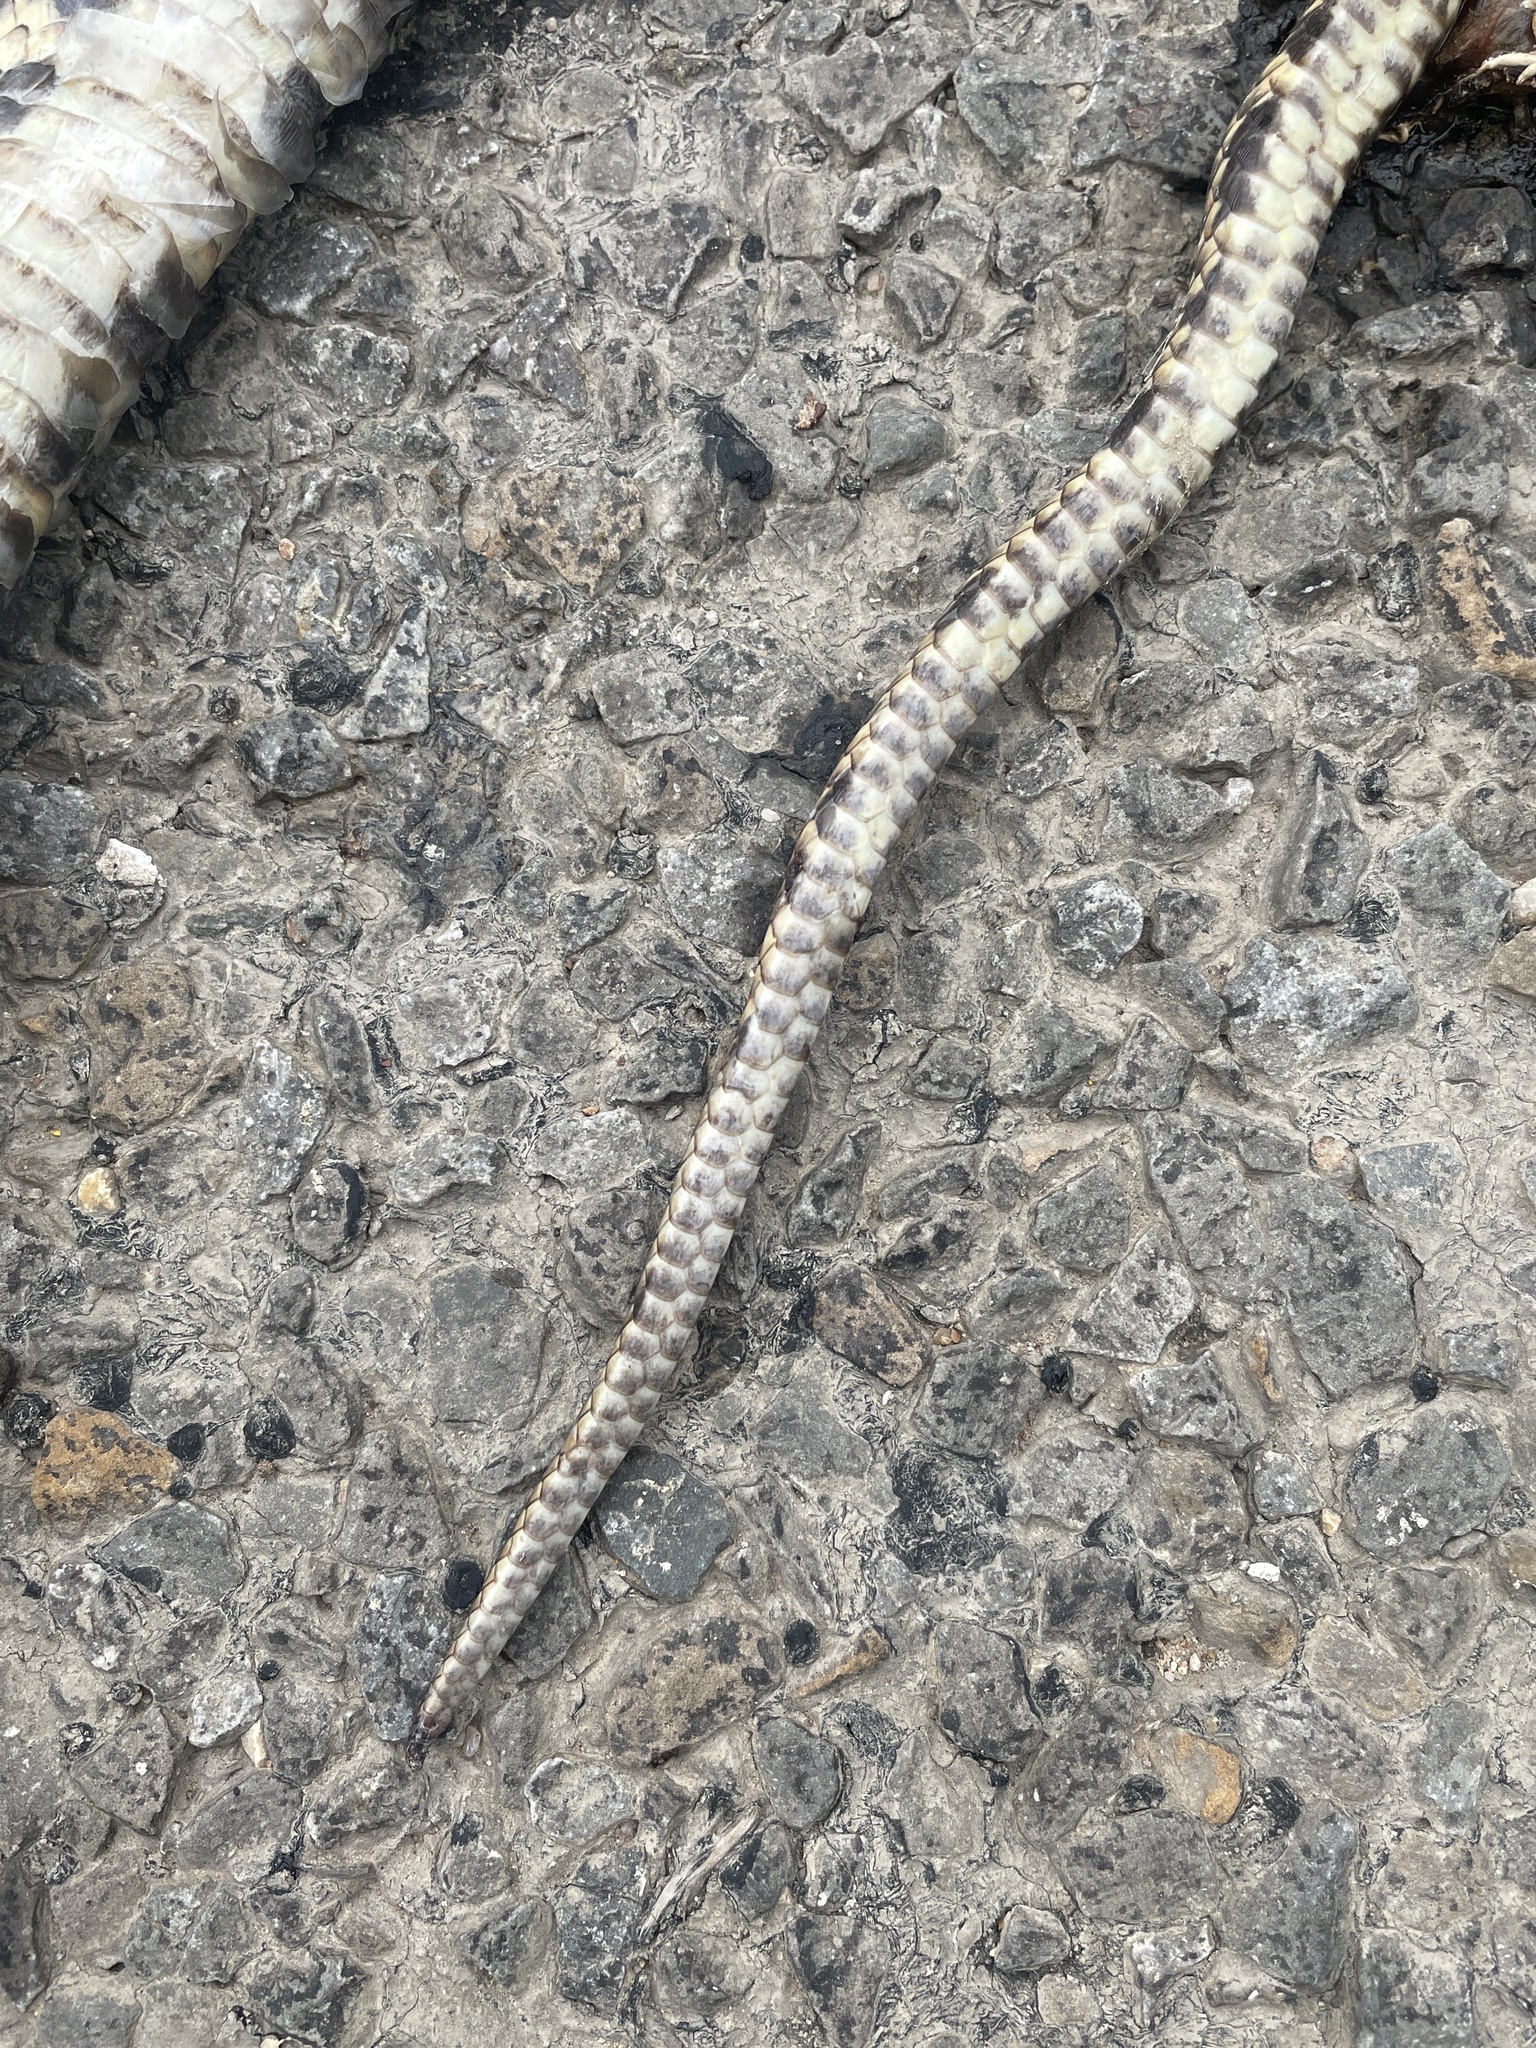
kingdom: Animalia
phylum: Chordata
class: Squamata
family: Colubridae
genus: Pantherophis
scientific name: Pantherophis obsoletus
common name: Black rat snake
